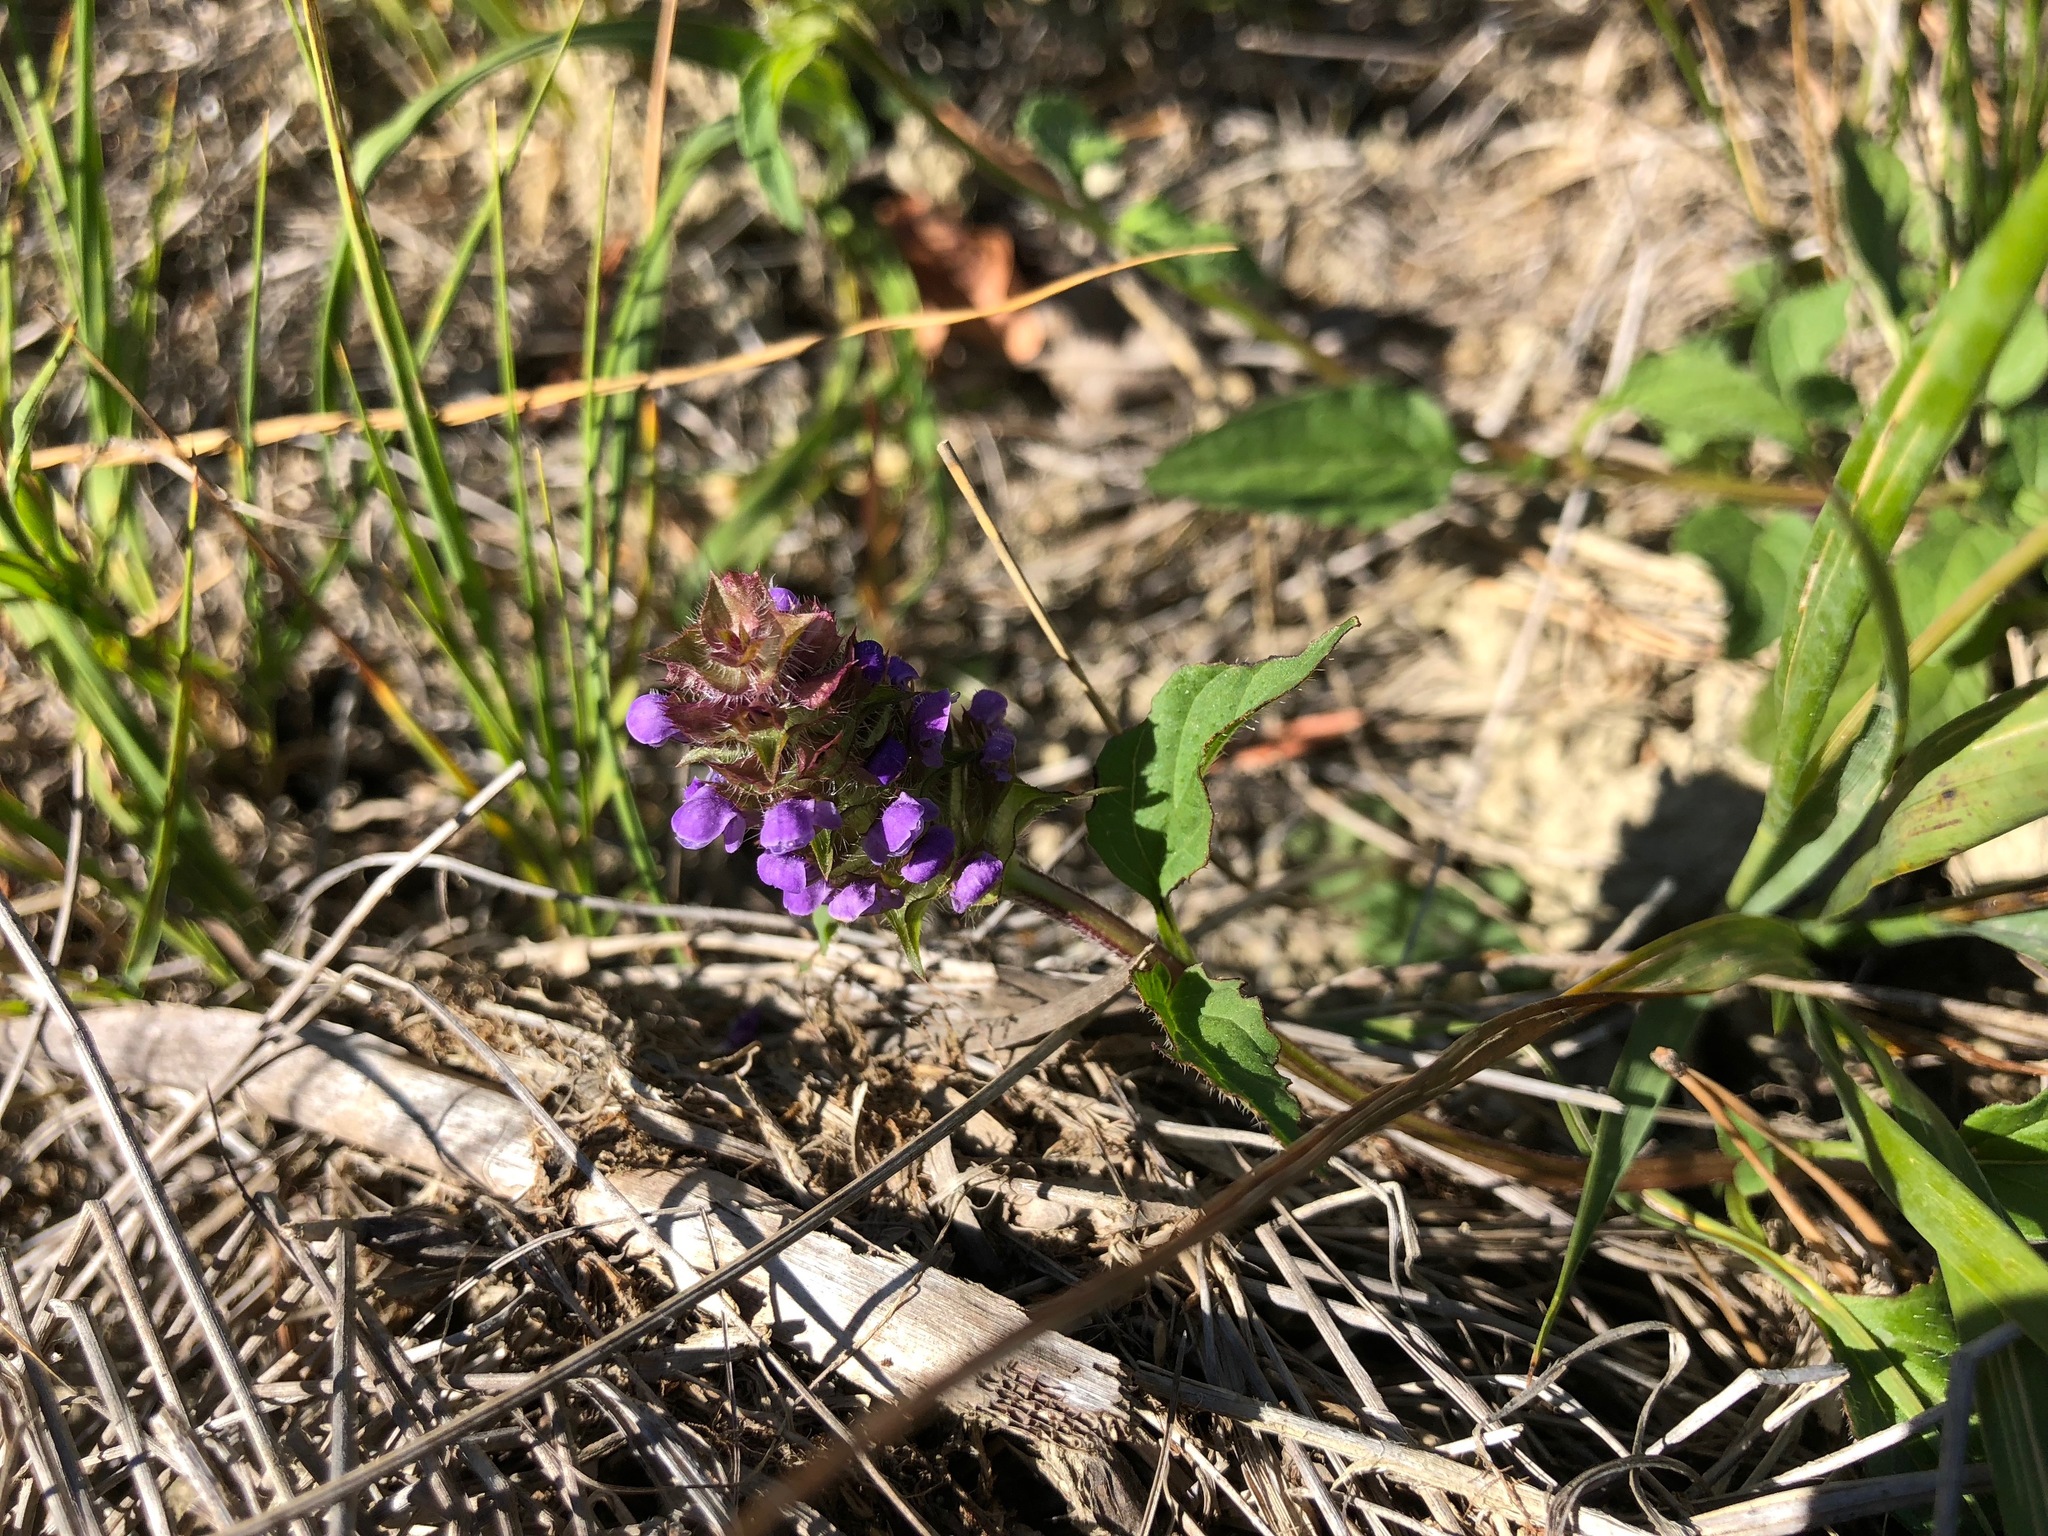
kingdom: Plantae
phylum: Tracheophyta
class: Magnoliopsida
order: Lamiales
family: Lamiaceae
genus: Prunella
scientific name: Prunella vulgaris
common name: Heal-all
